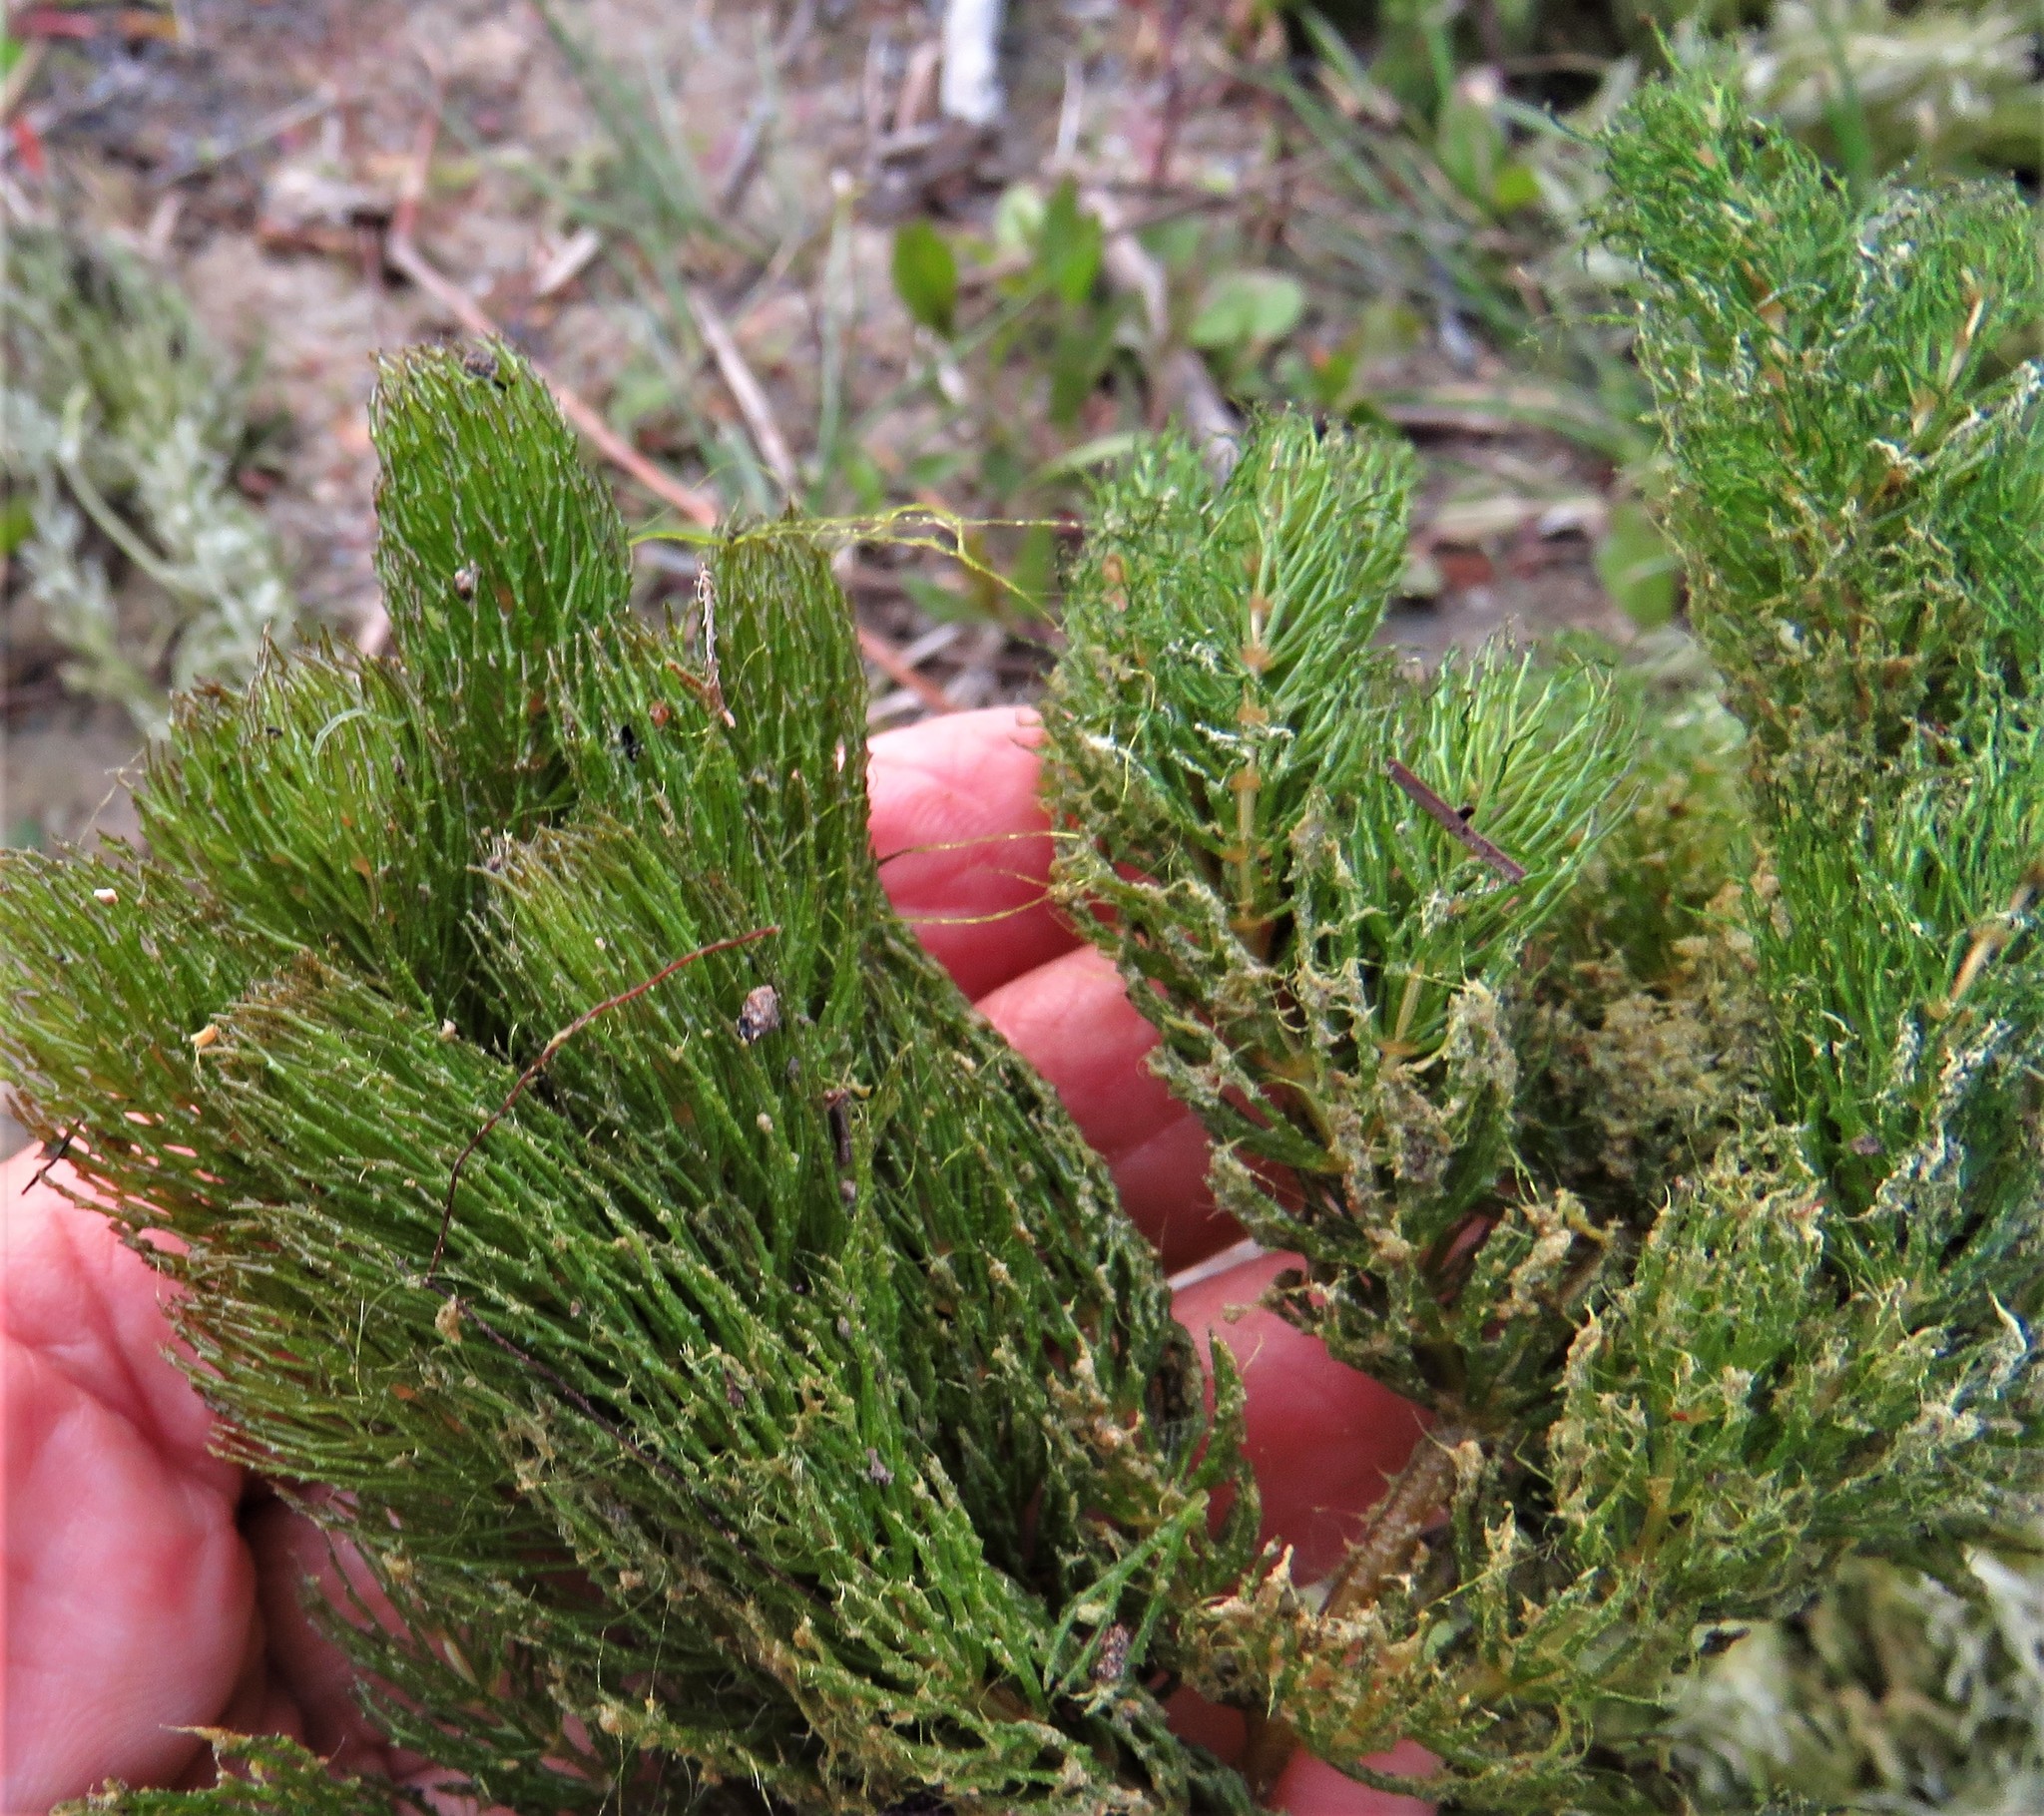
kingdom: Plantae
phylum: Tracheophyta
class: Magnoliopsida
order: Ceratophyllales
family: Ceratophyllaceae
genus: Ceratophyllum
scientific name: Ceratophyllum demersum
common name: Rigid hornwort
